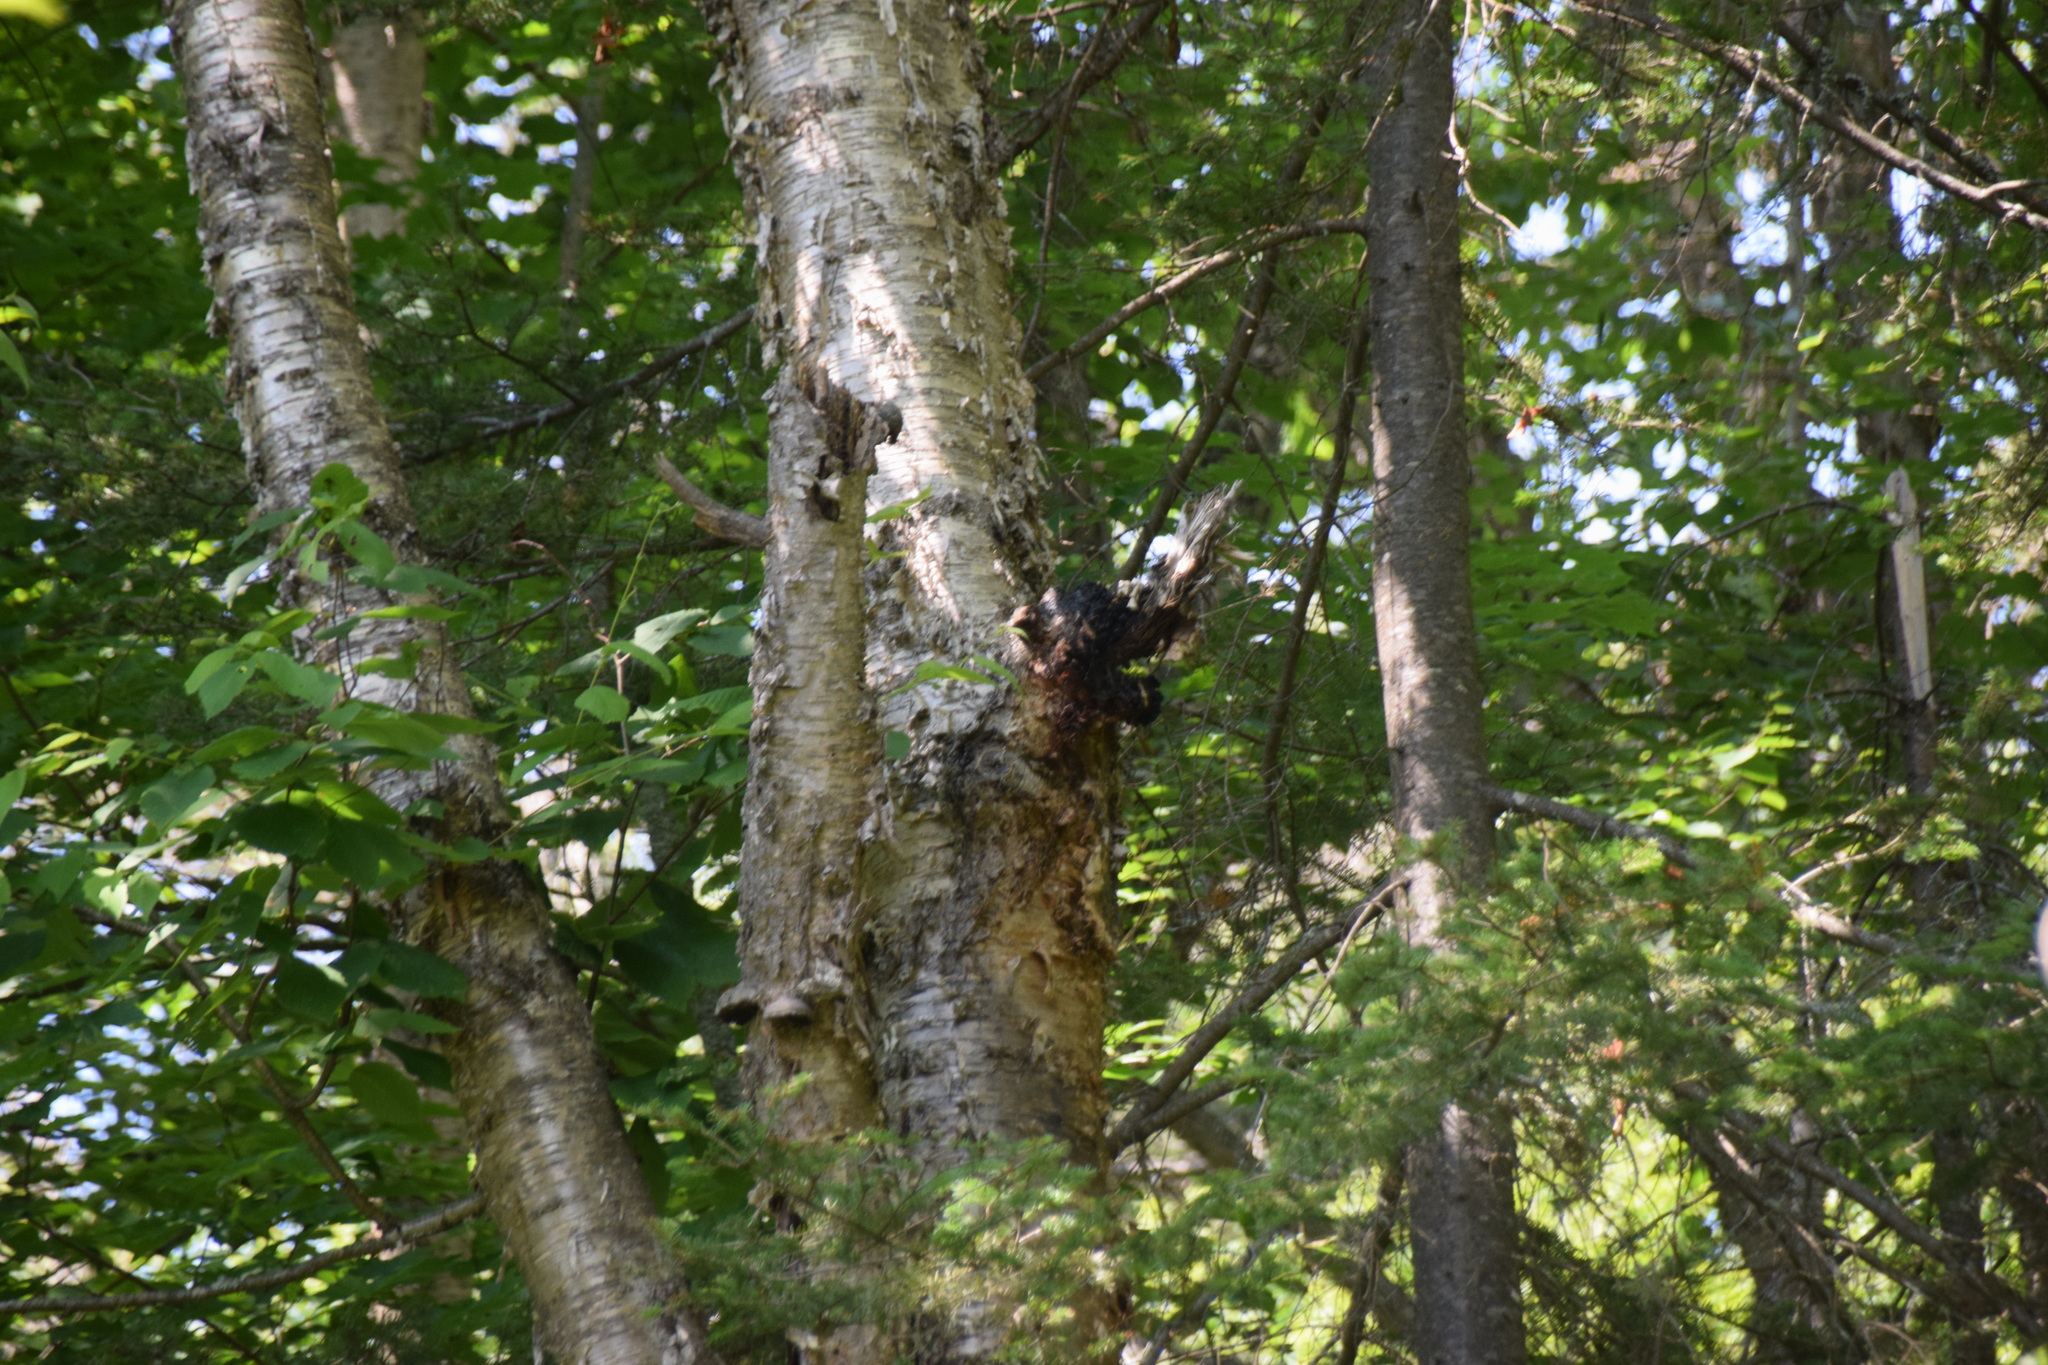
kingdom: Fungi
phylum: Basidiomycota
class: Agaricomycetes
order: Hymenochaetales
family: Hymenochaetaceae
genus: Inonotus
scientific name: Inonotus obliquus
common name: Chaga
